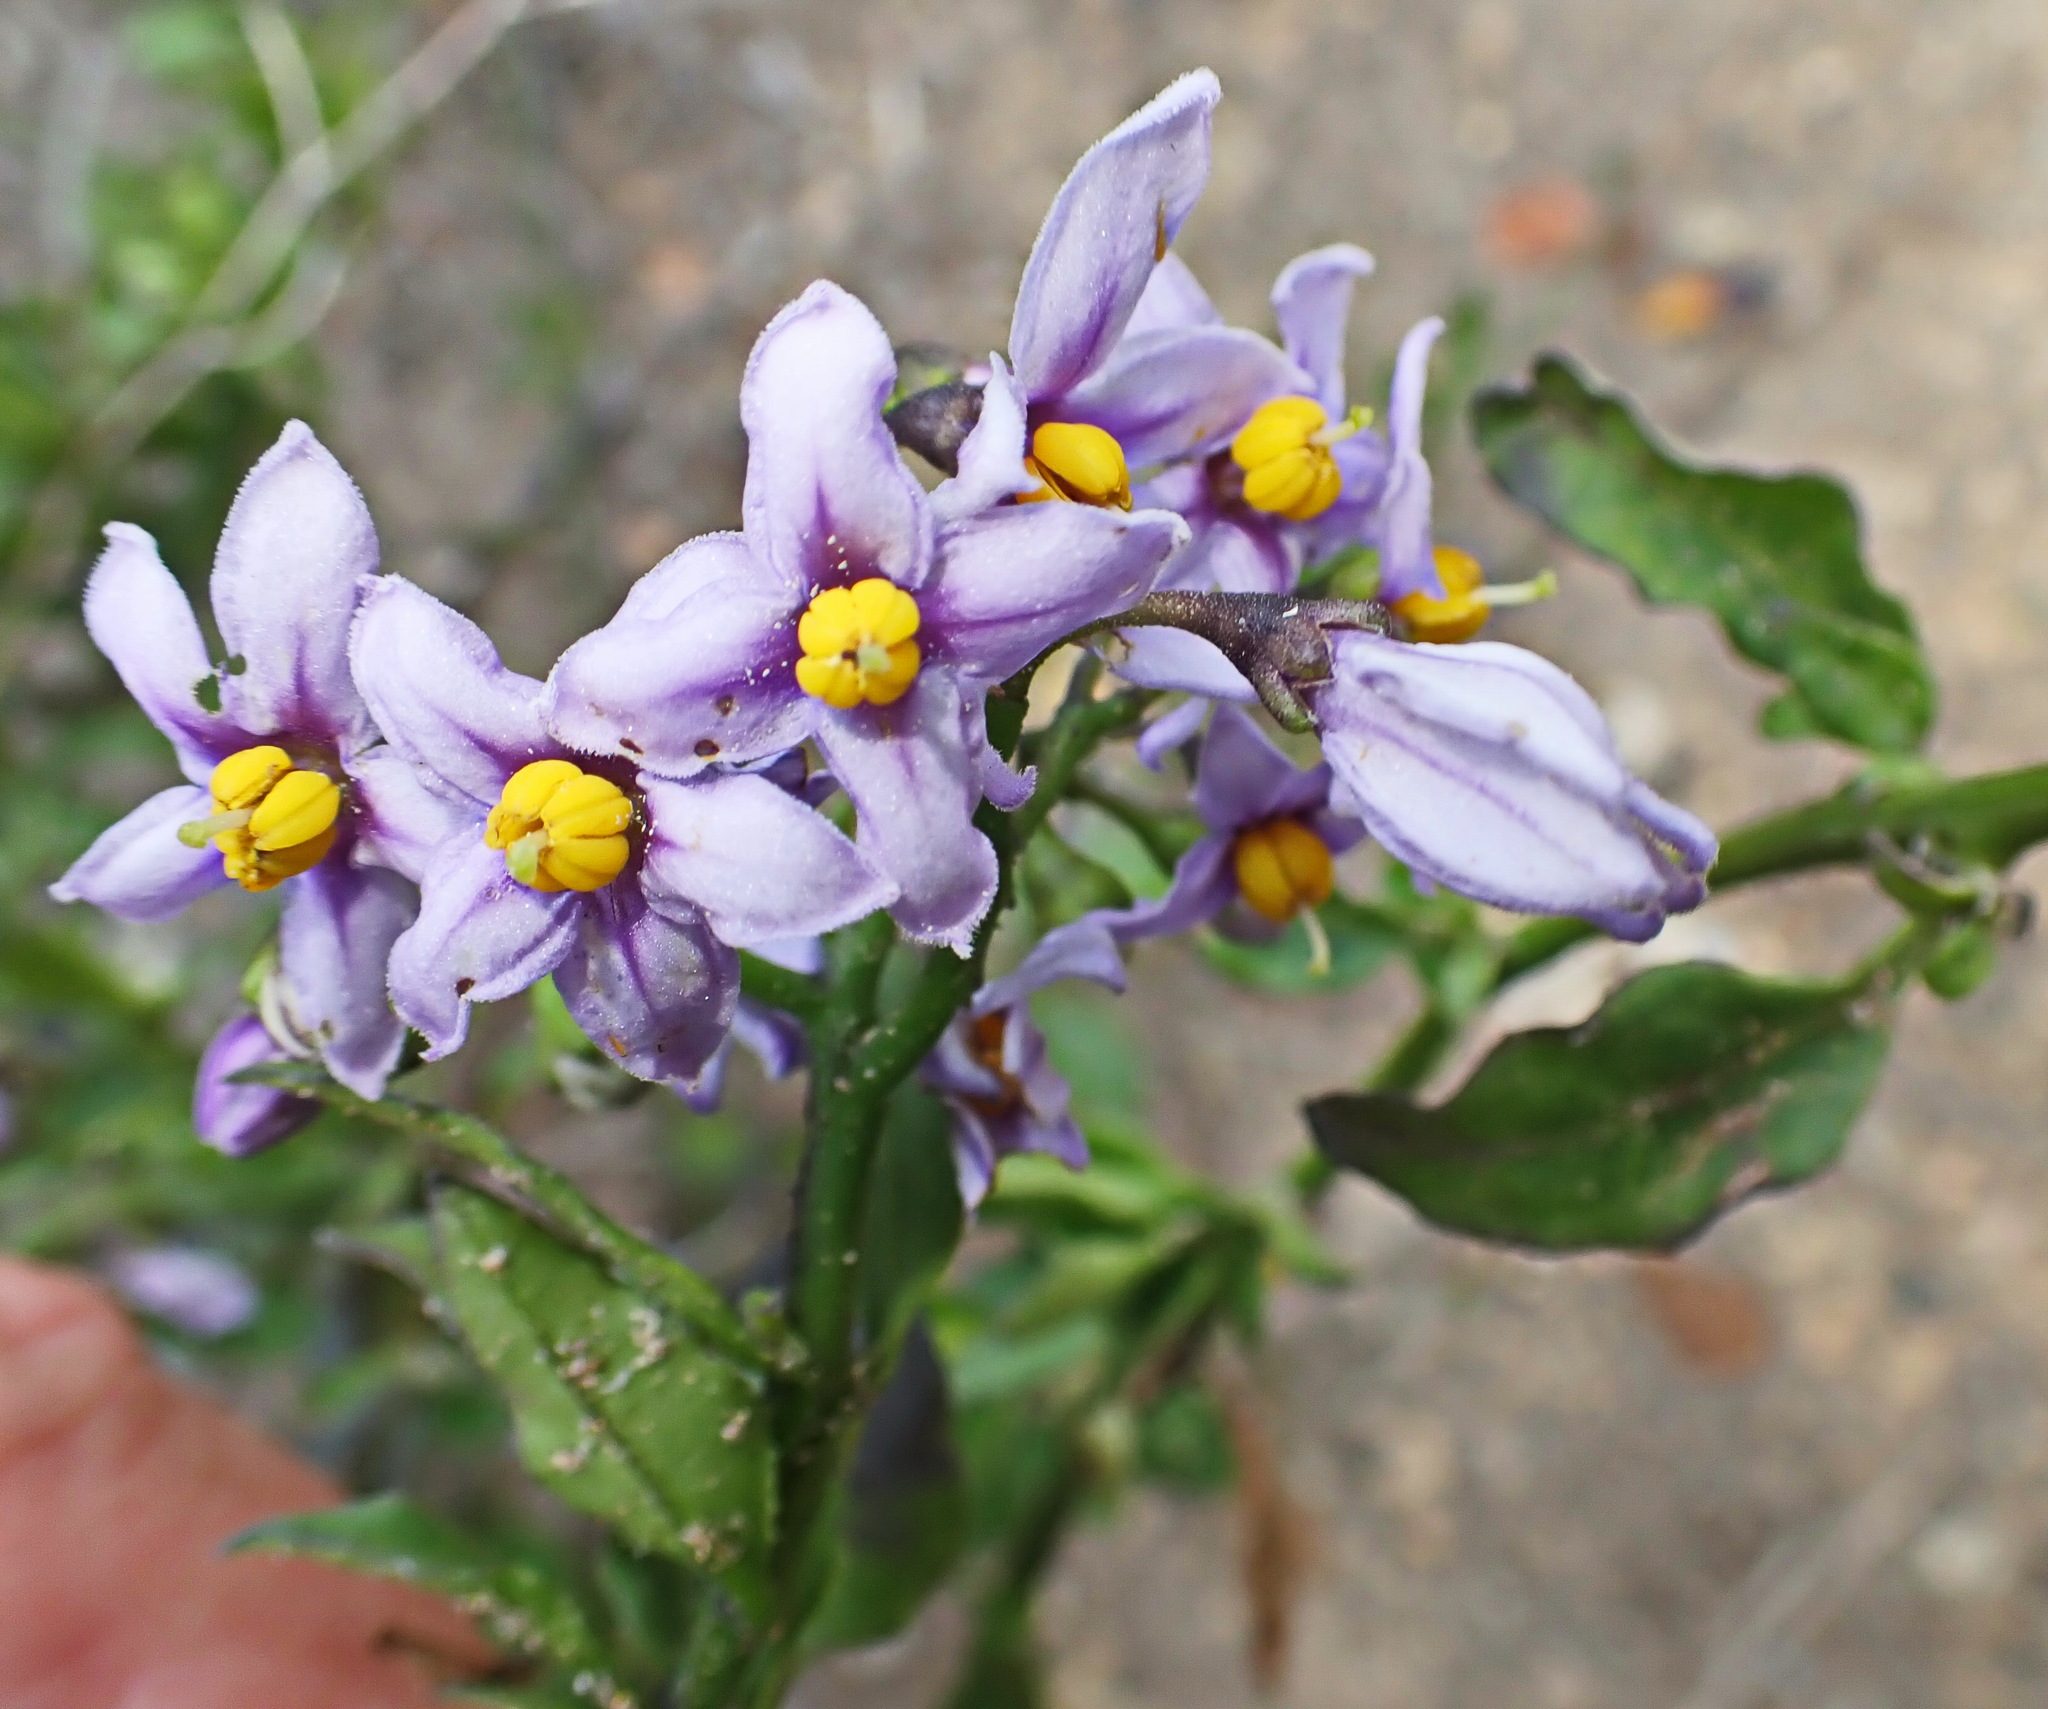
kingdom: Plantae
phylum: Tracheophyta
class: Magnoliopsida
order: Solanales
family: Solanaceae
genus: Solanum
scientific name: Solanum africanum
